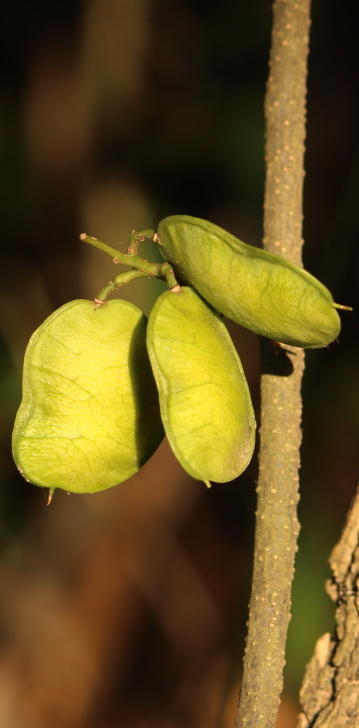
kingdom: Plantae
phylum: Tracheophyta
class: Magnoliopsida
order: Fabales
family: Fabaceae
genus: Derris
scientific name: Derris trifoliata
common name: Three-leaf derris
